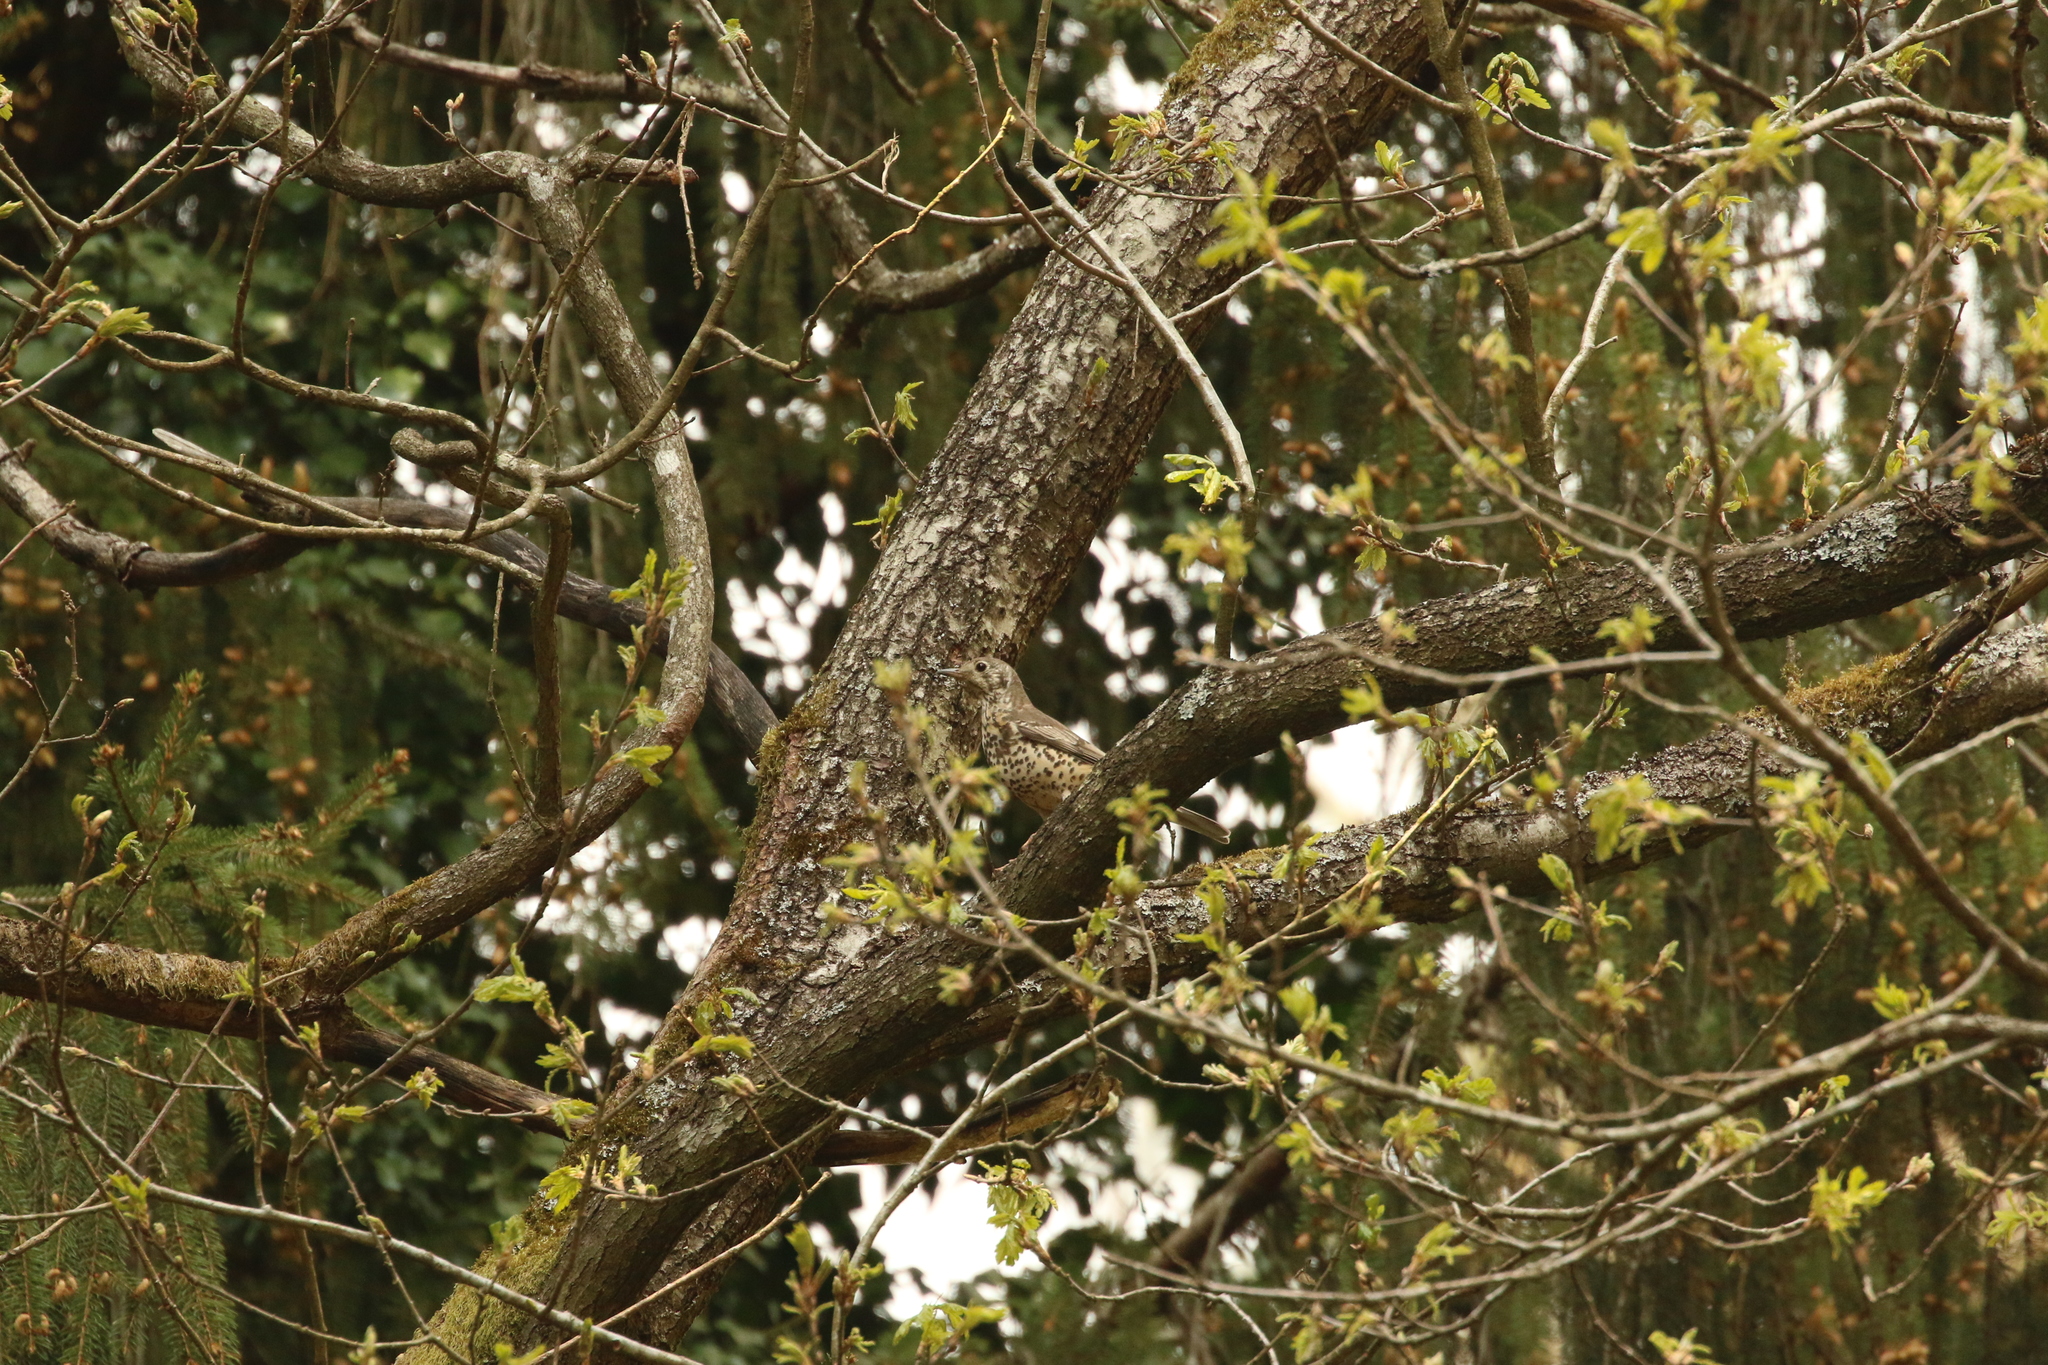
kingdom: Animalia
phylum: Chordata
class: Aves
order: Passeriformes
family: Turdidae
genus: Turdus
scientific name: Turdus viscivorus
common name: Mistle thrush
